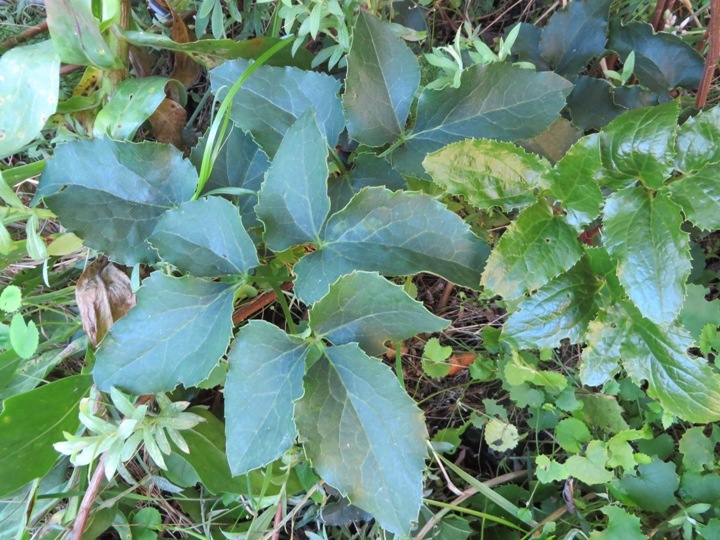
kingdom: Plantae
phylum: Tracheophyta
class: Magnoliopsida
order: Ranunculales
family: Ranunculaceae
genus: Knowltonia
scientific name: Knowltonia vesicatoria
